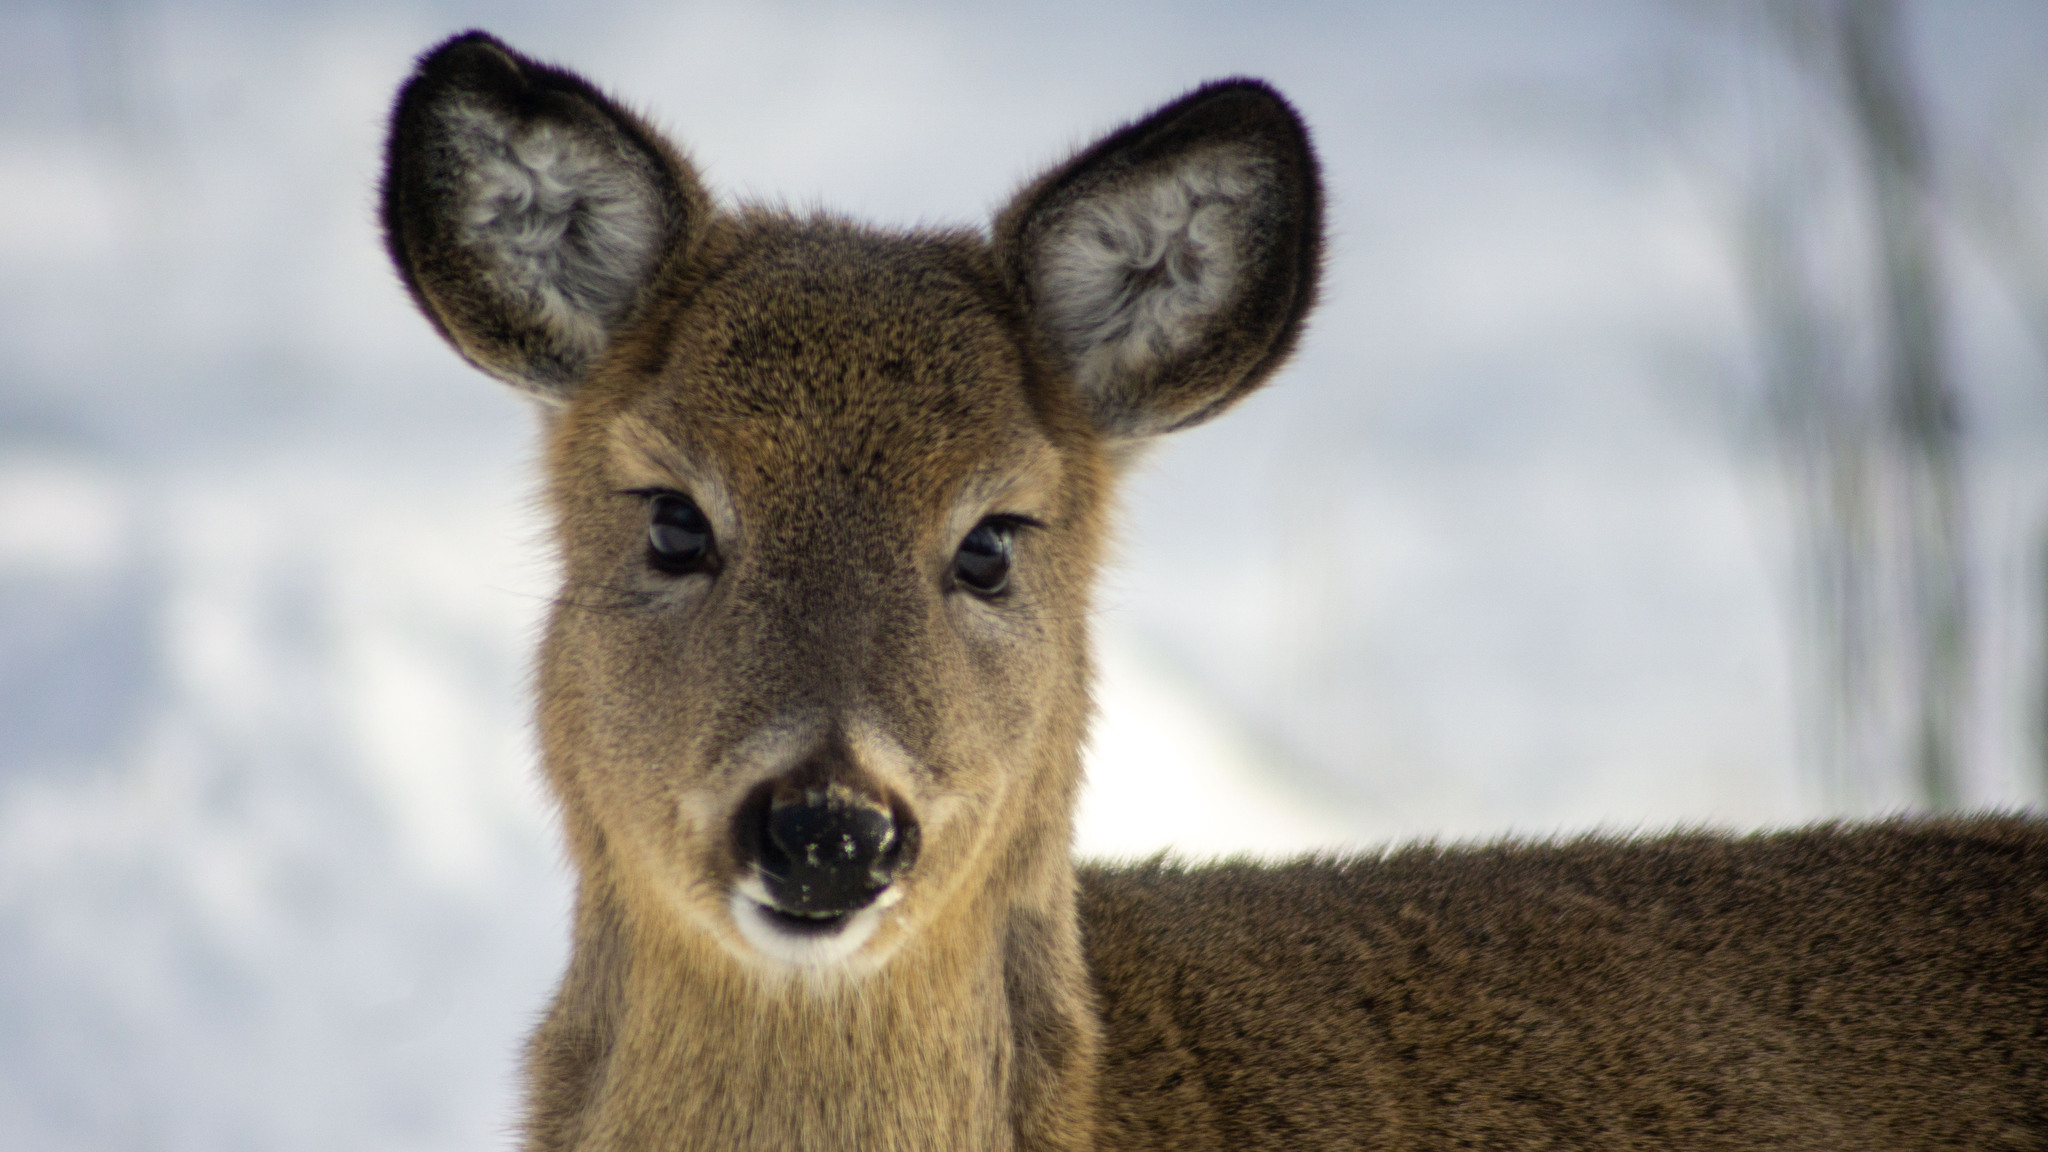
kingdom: Animalia
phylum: Chordata
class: Mammalia
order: Artiodactyla
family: Cervidae
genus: Odocoileus
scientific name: Odocoileus virginianus
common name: White-tailed deer
